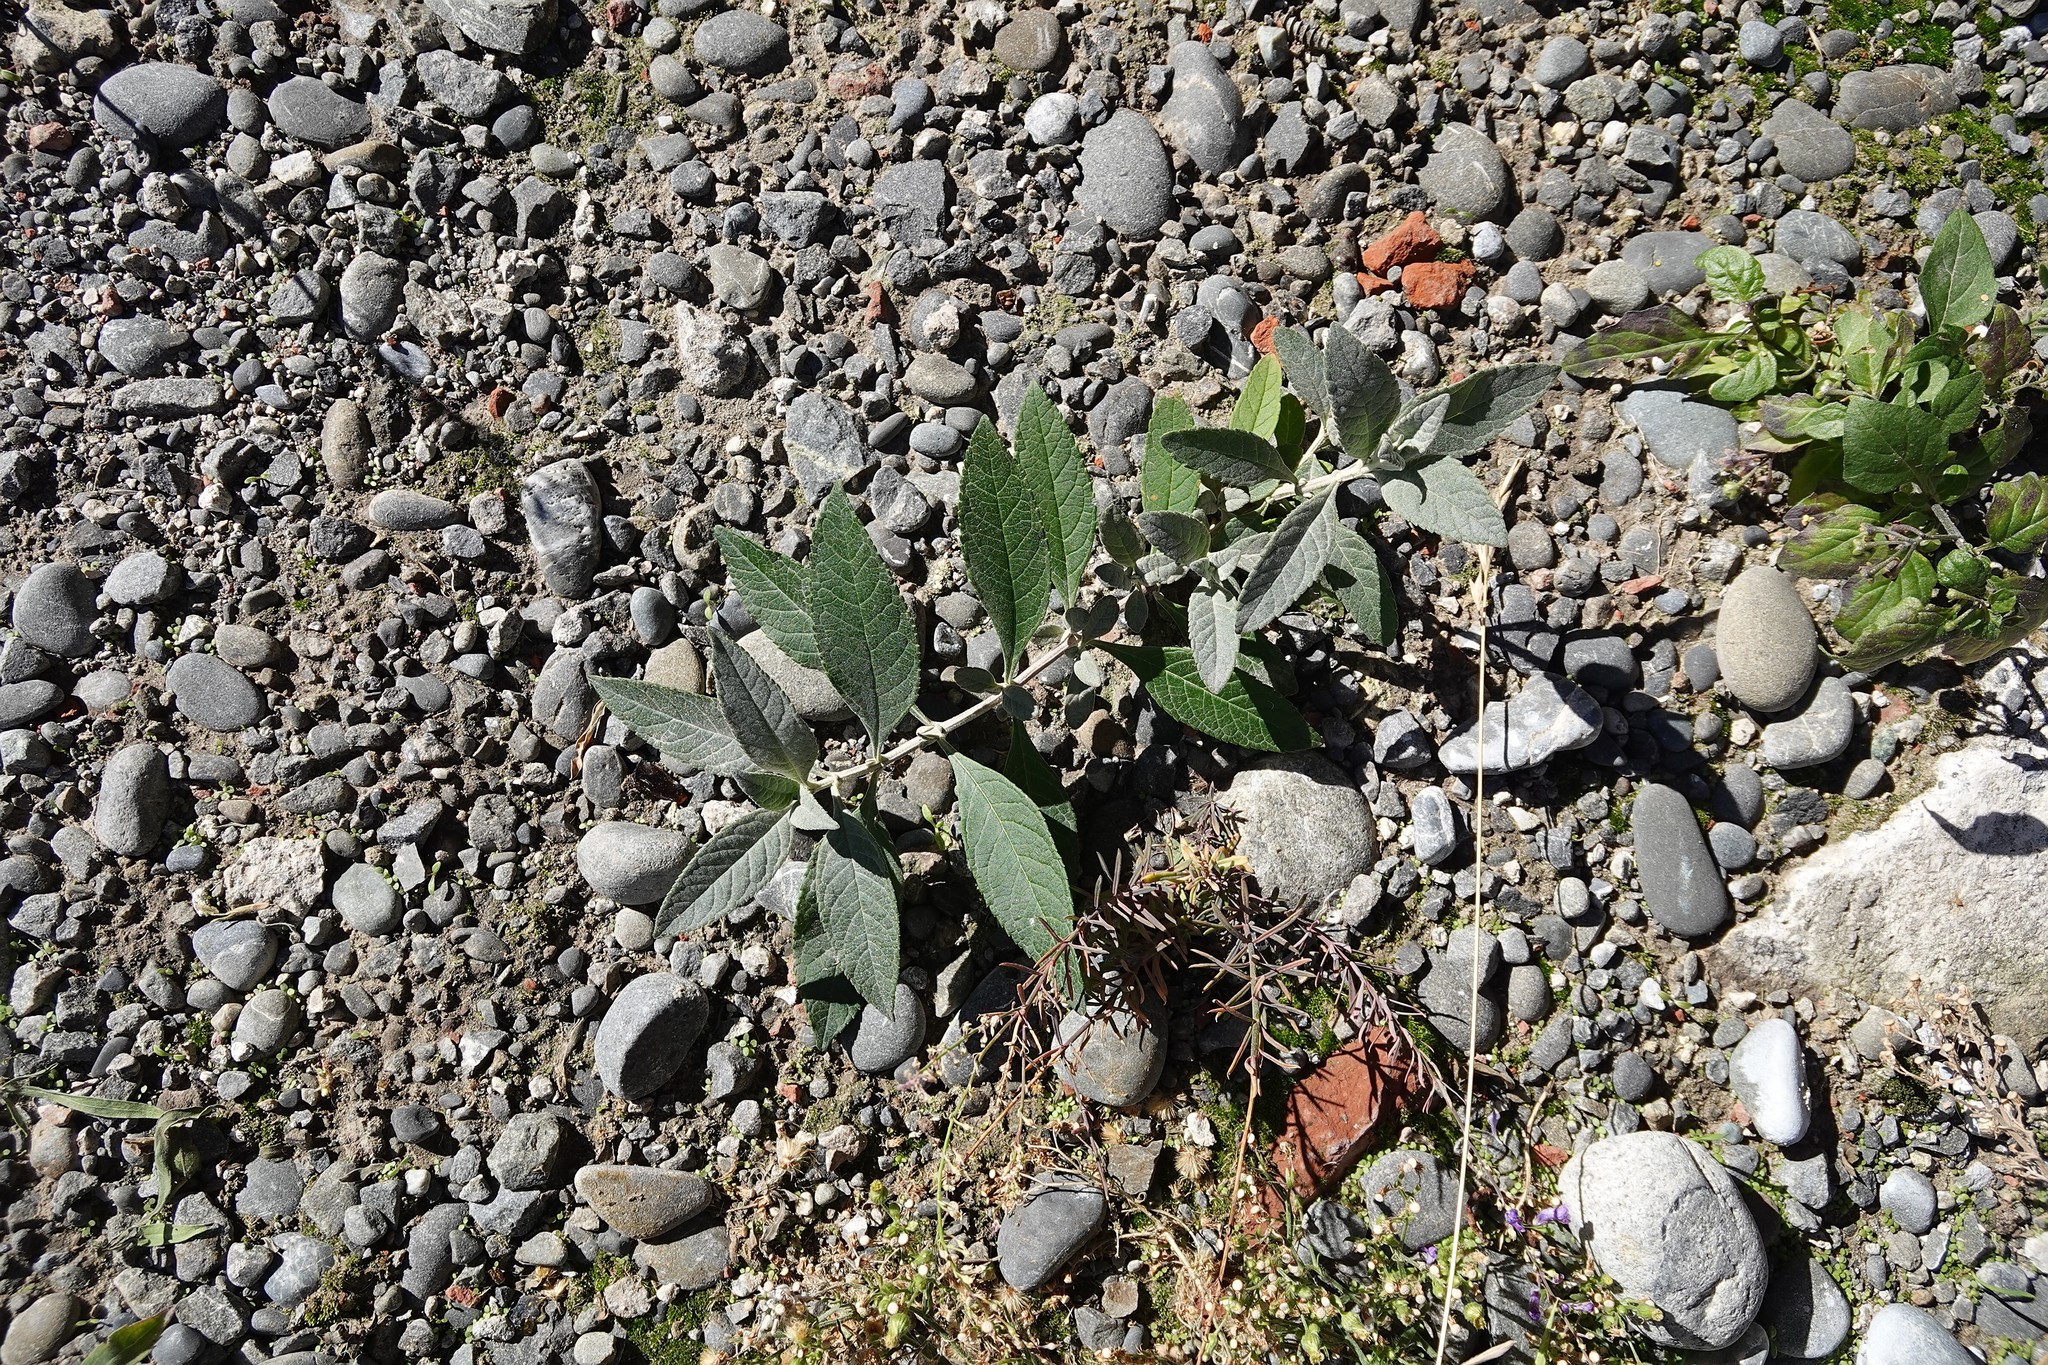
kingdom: Plantae
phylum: Tracheophyta
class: Magnoliopsida
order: Lamiales
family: Scrophulariaceae
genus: Buddleja
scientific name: Buddleja davidii
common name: Butterfly-bush
